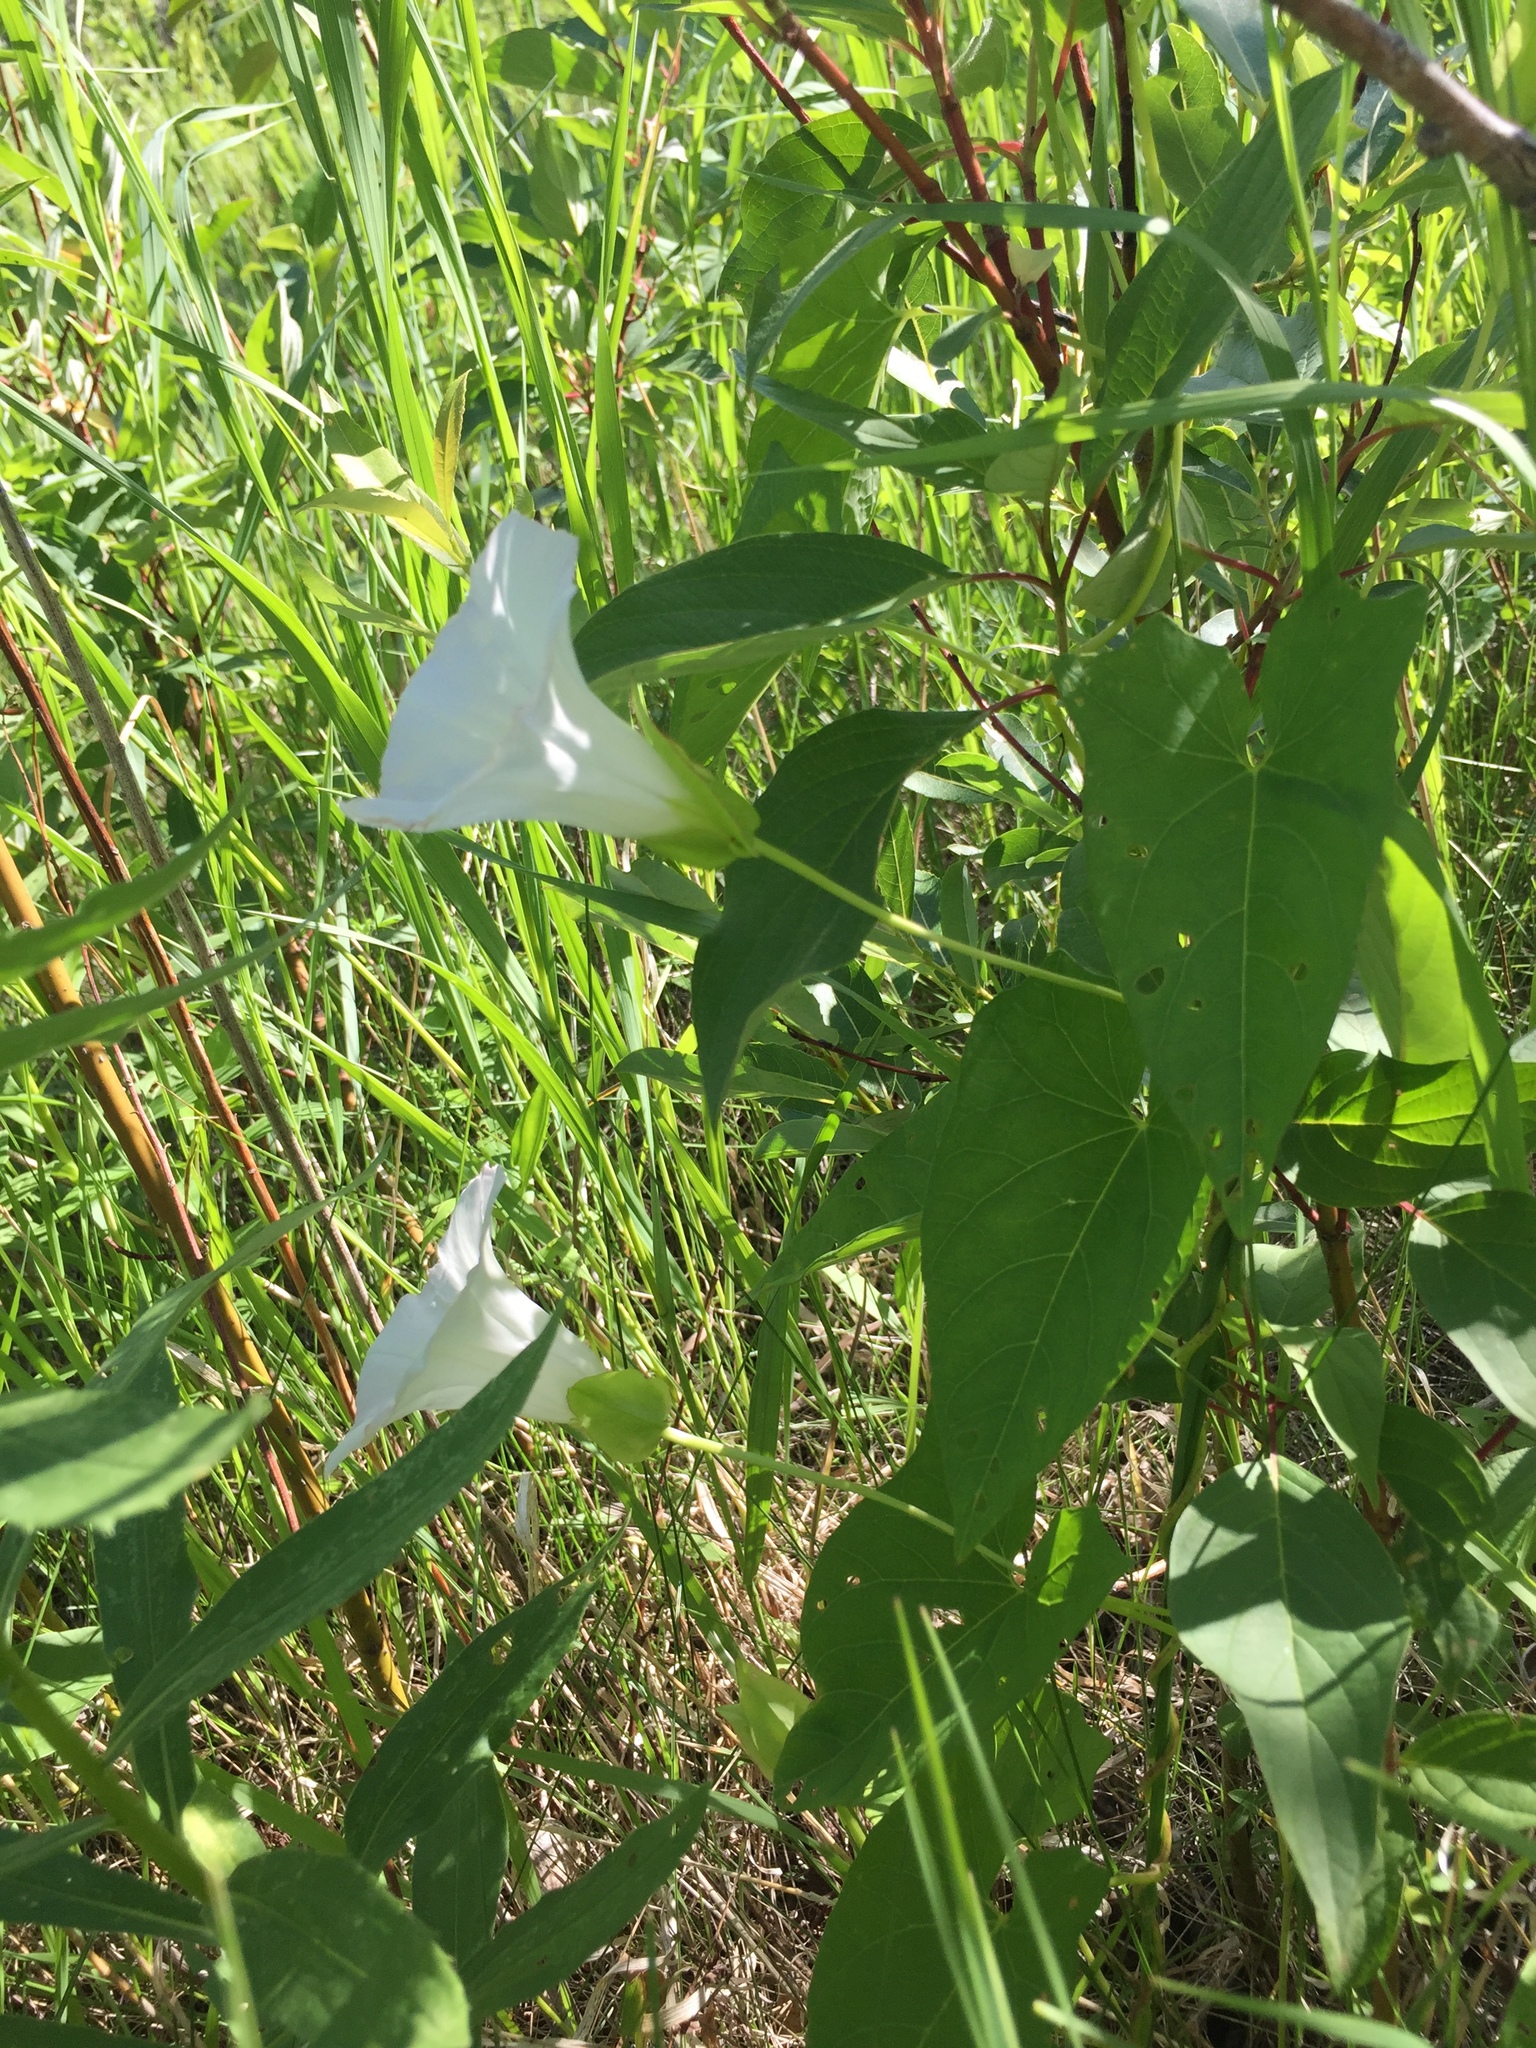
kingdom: Plantae
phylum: Tracheophyta
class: Magnoliopsida
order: Solanales
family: Convolvulaceae
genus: Calystegia
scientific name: Calystegia sepium
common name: Hedge bindweed
